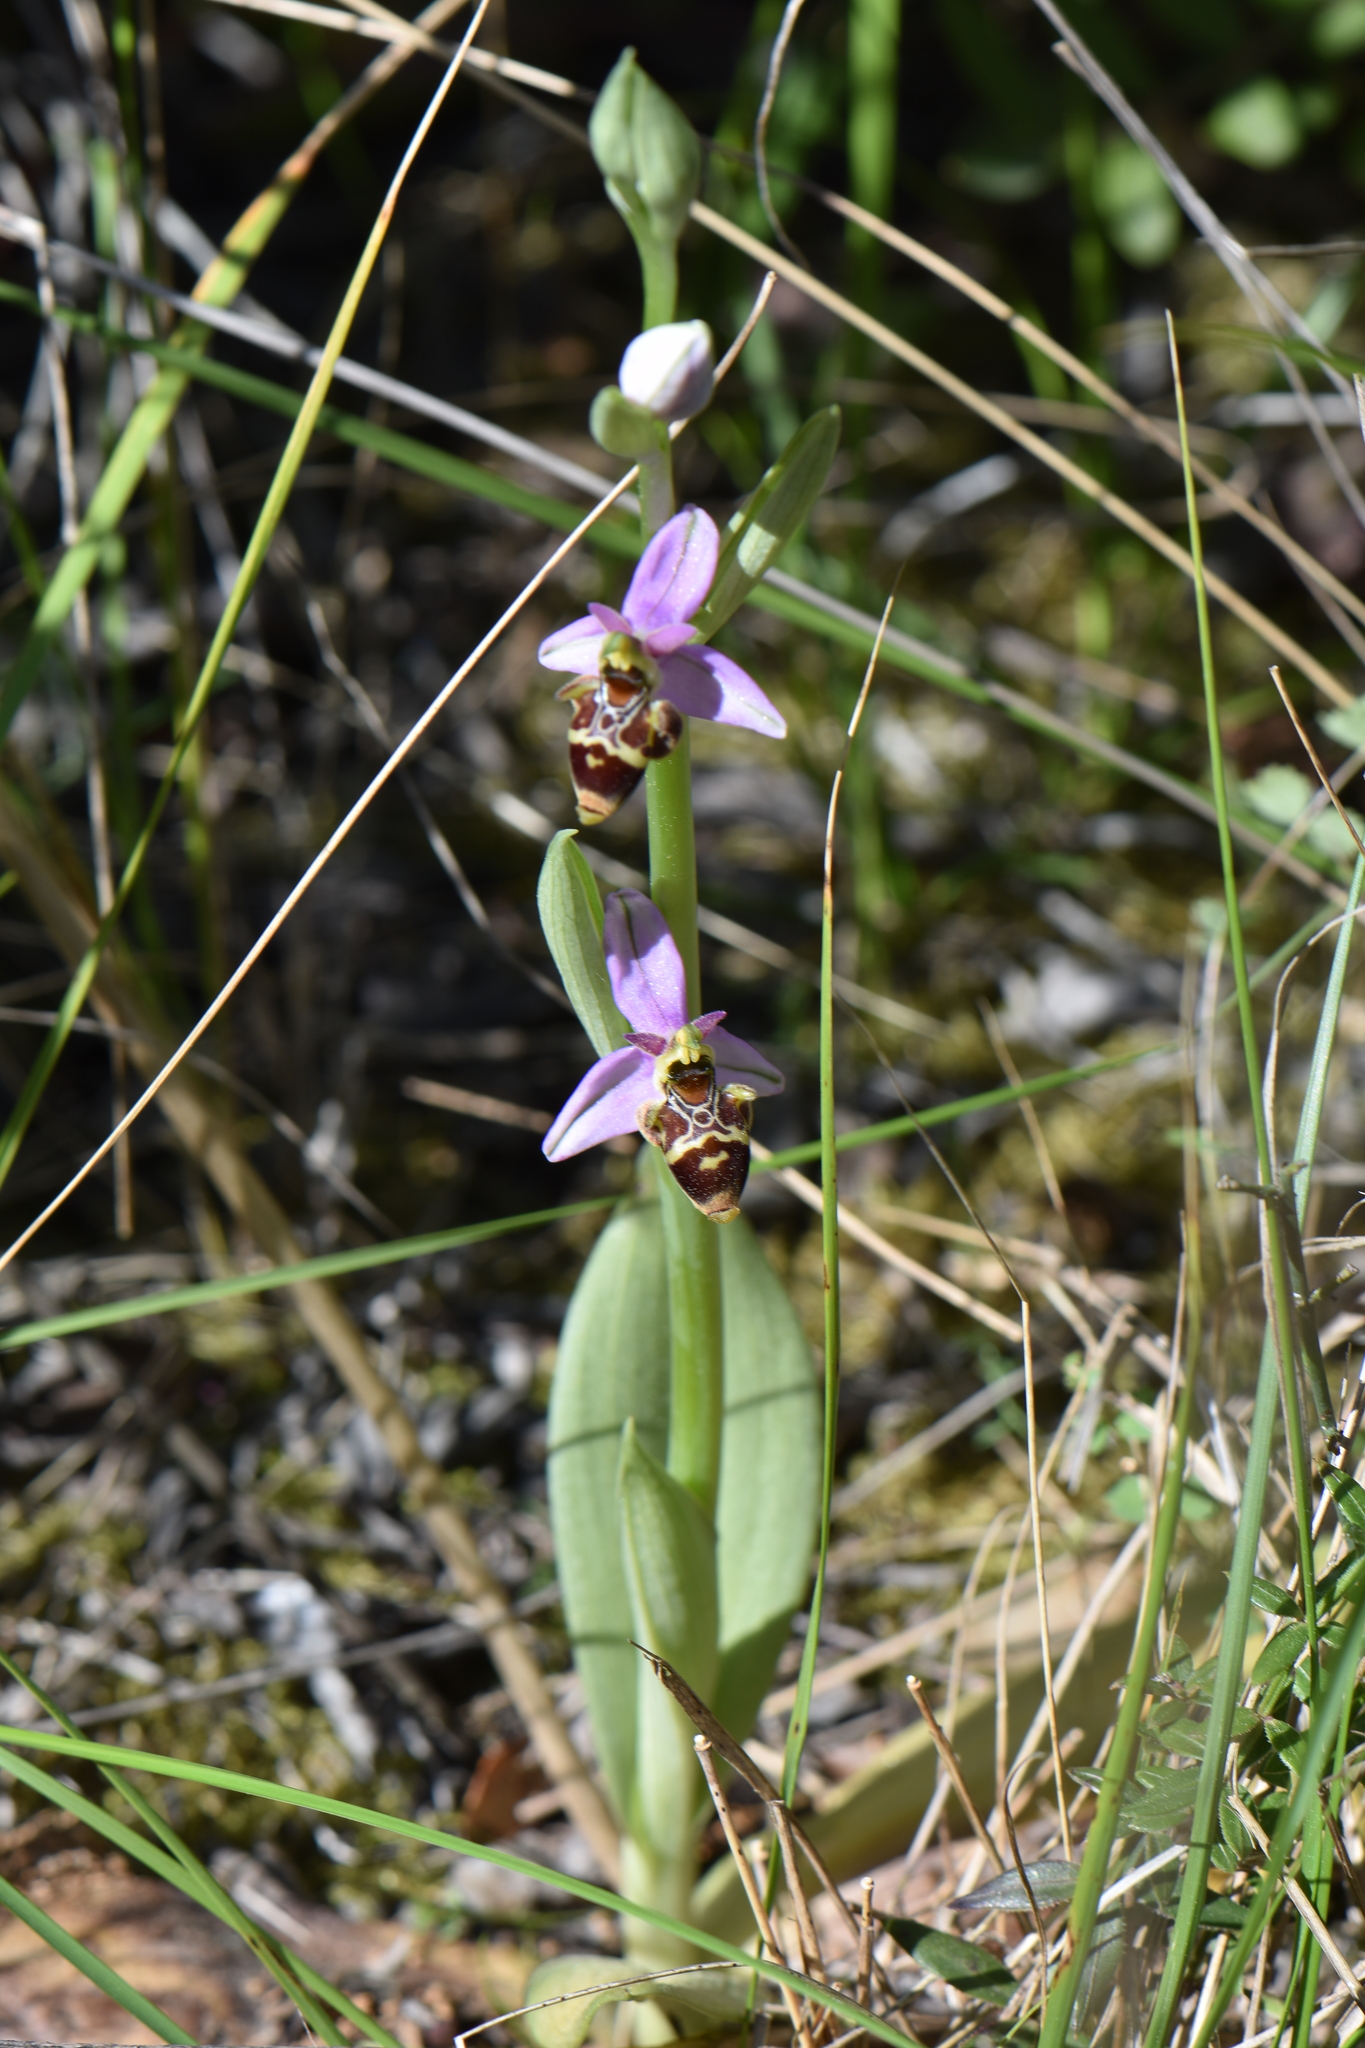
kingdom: Plantae
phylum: Tracheophyta
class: Liliopsida
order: Asparagales
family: Orchidaceae
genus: Ophrys
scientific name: Ophrys scolopax
